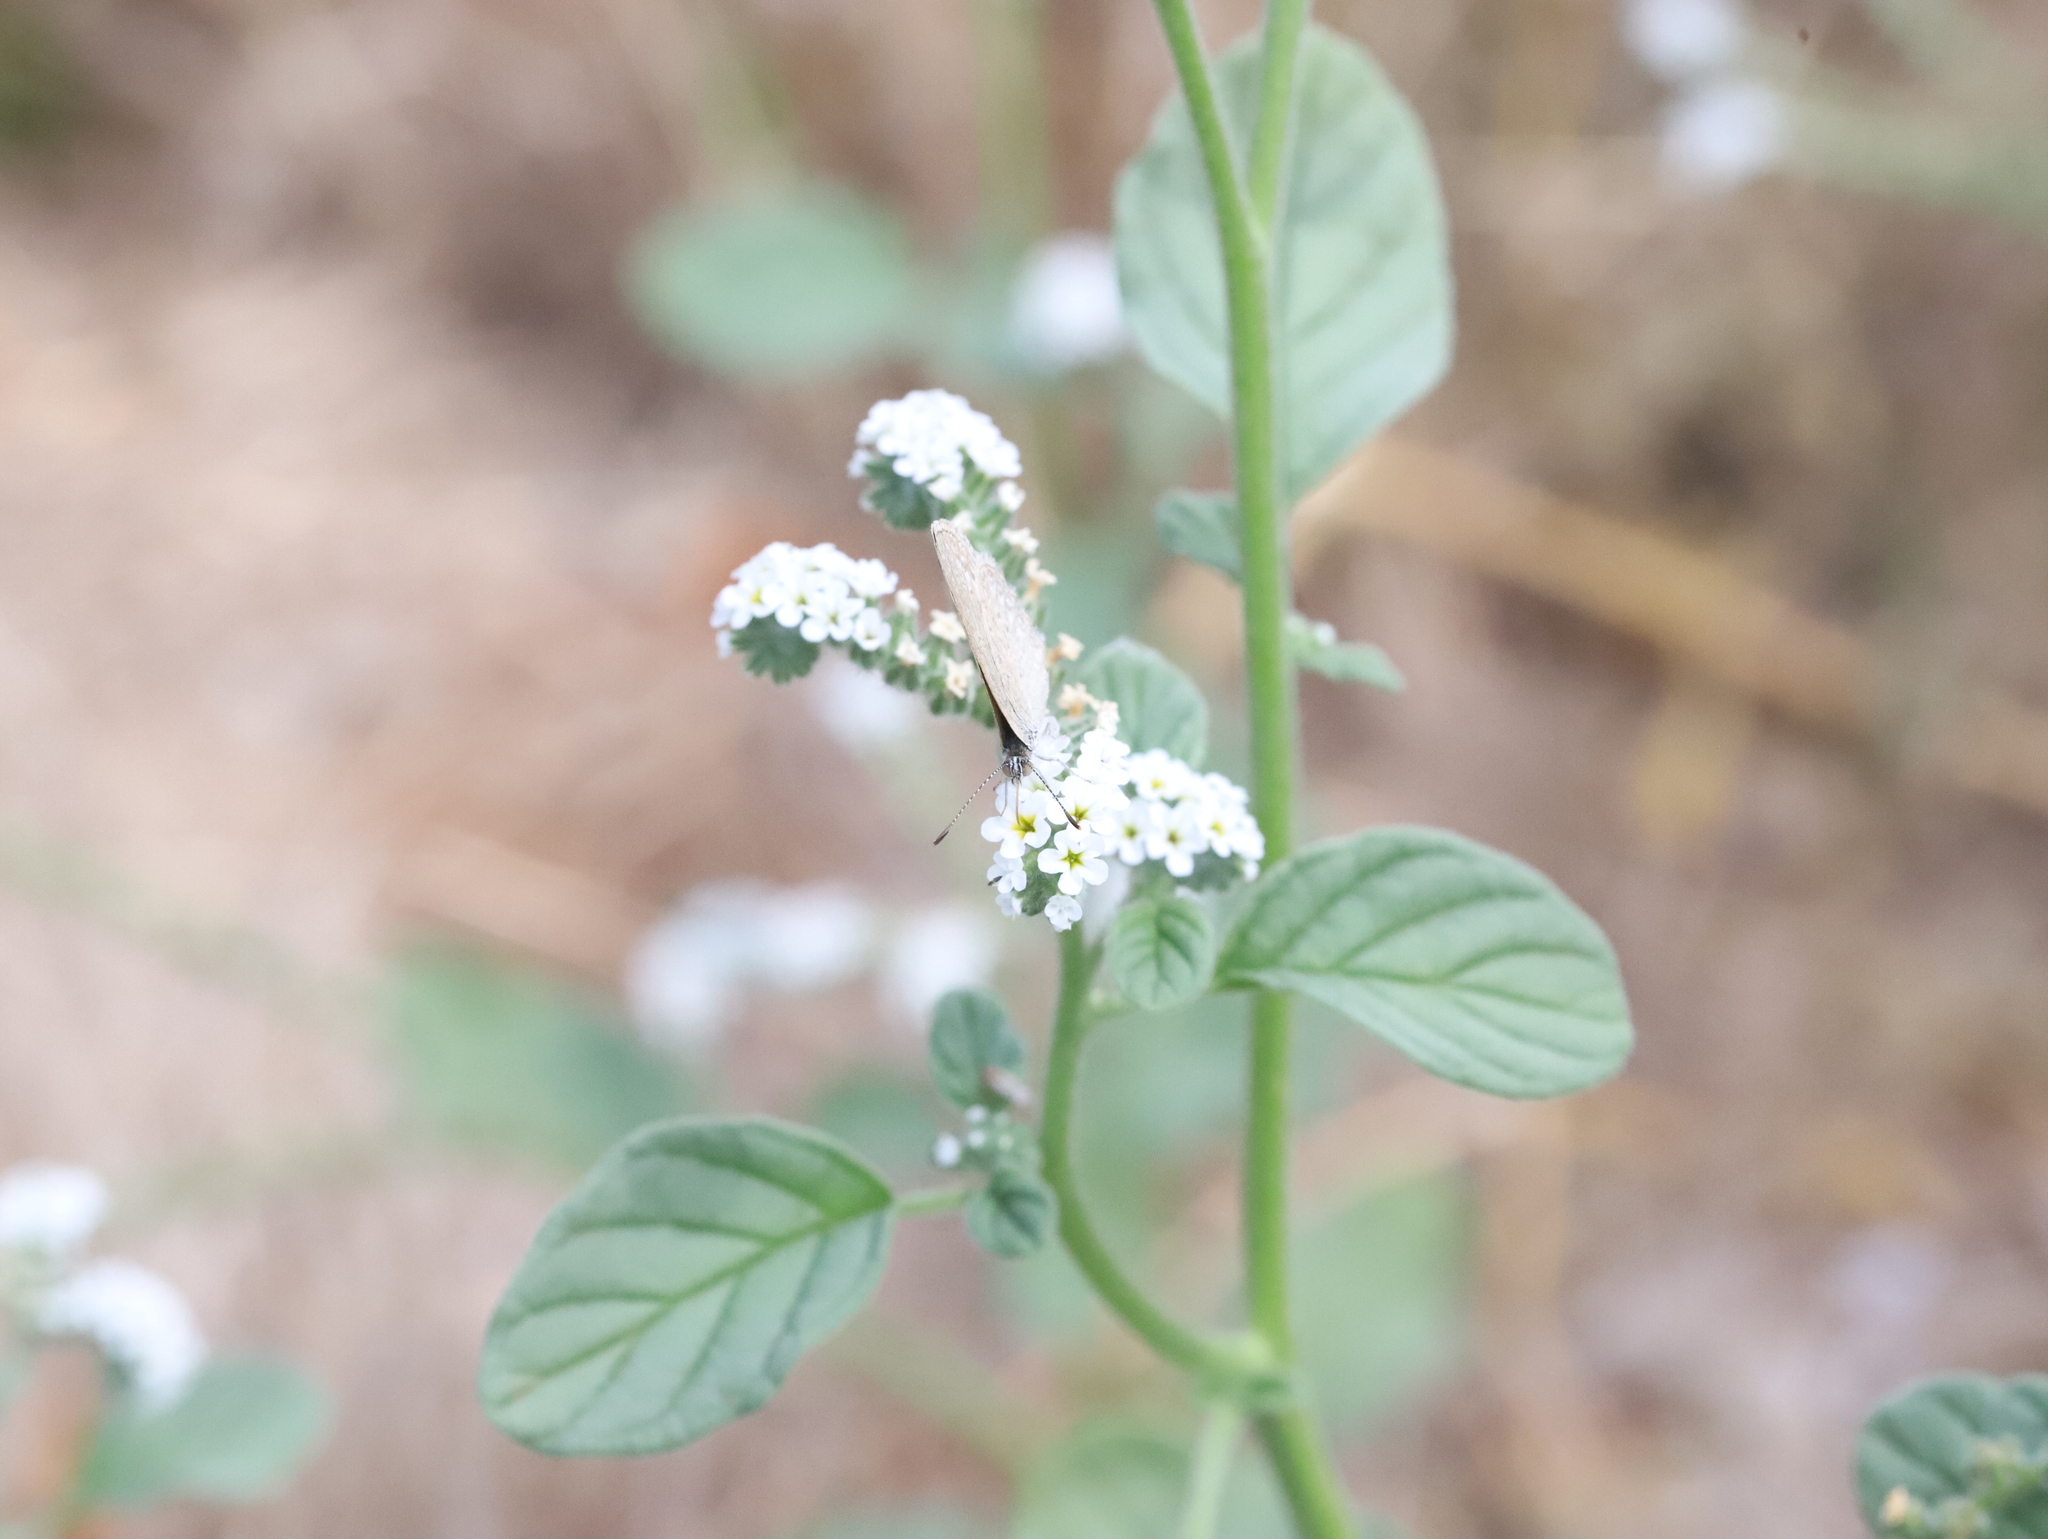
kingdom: Animalia
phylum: Arthropoda
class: Insecta
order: Lepidoptera
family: Lycaenidae
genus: Zizina
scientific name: Zizina labradus
